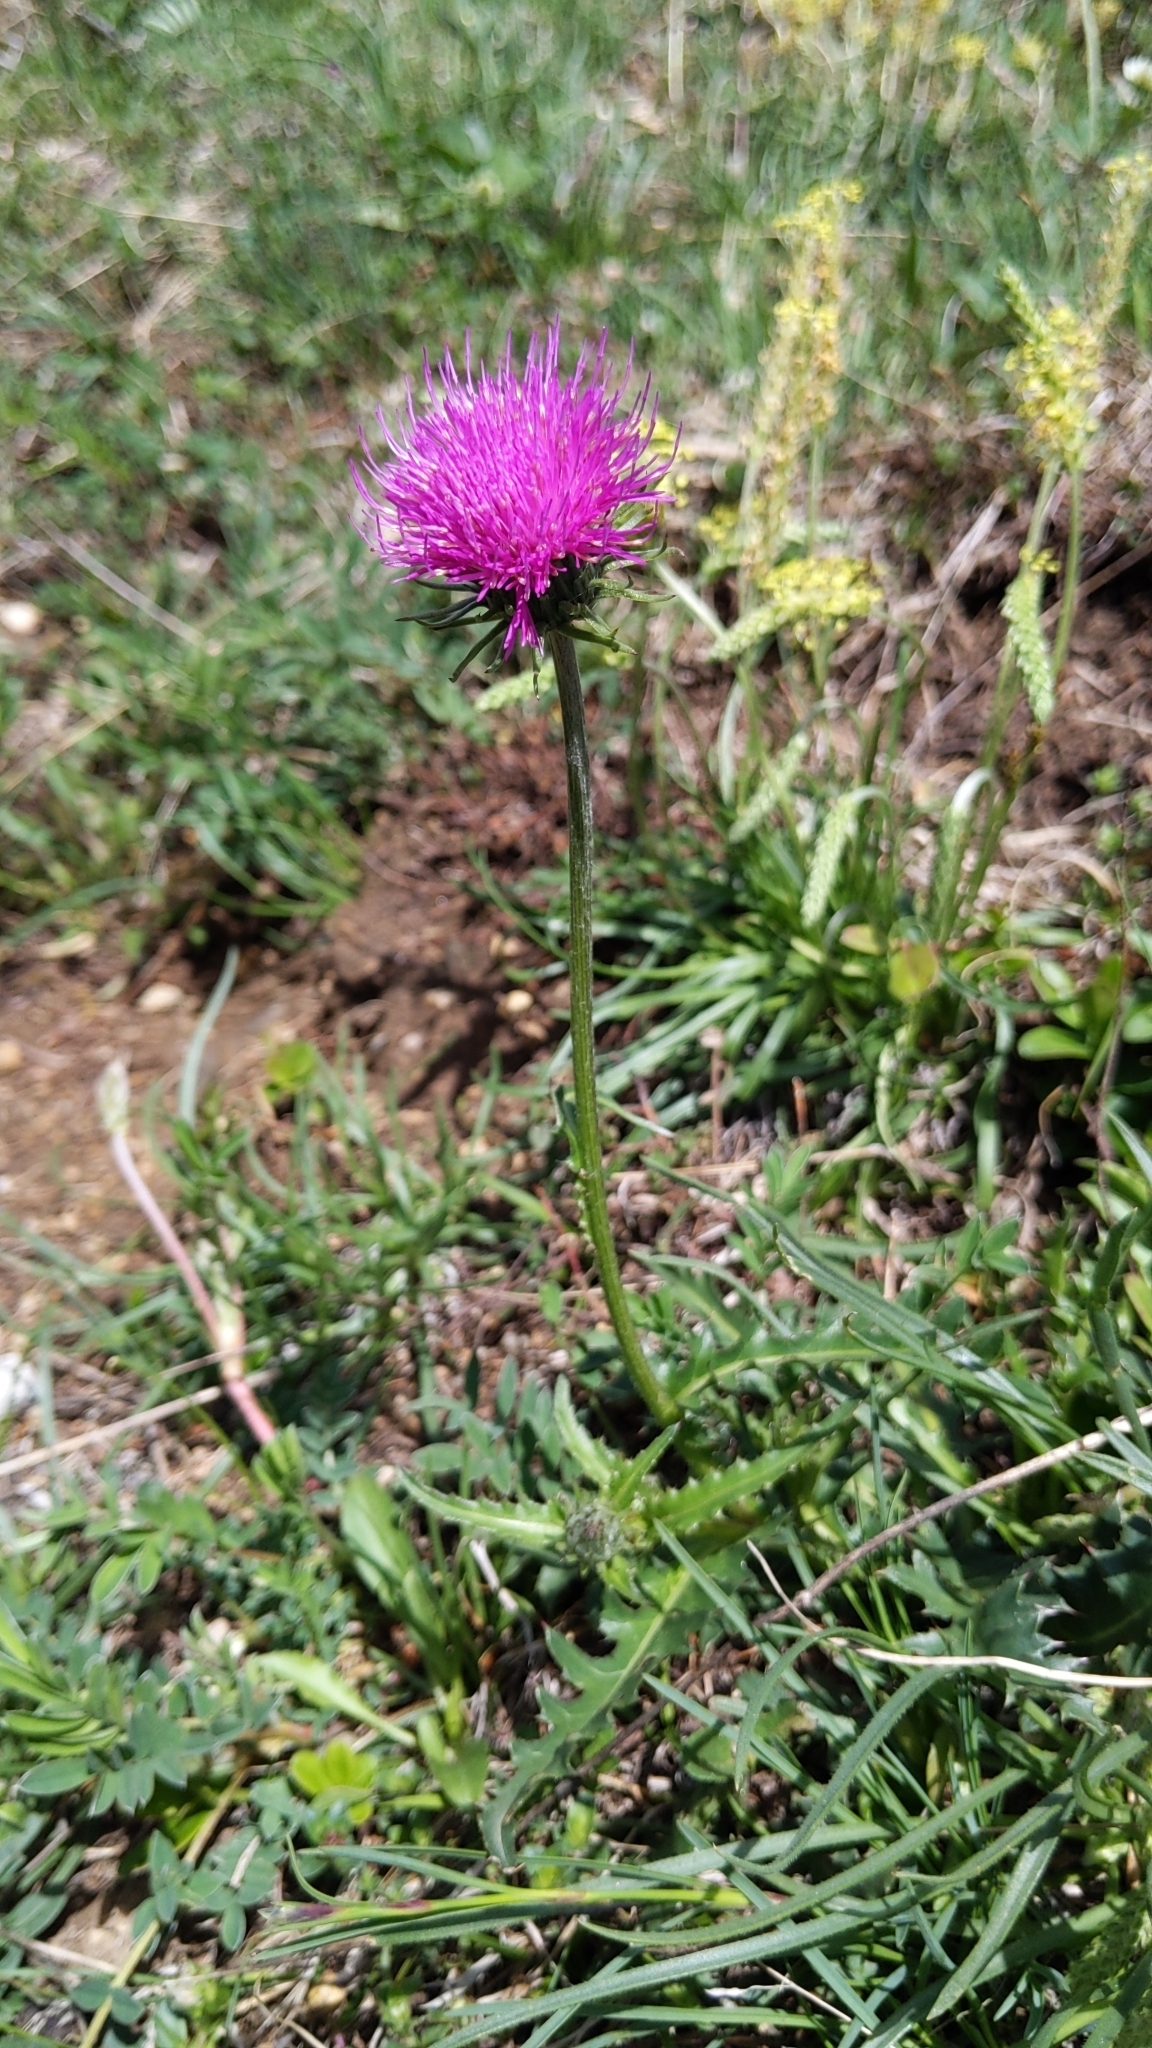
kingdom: Plantae
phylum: Tracheophyta
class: Magnoliopsida
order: Asterales
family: Asteraceae
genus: Carduus
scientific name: Carduus defloratus
